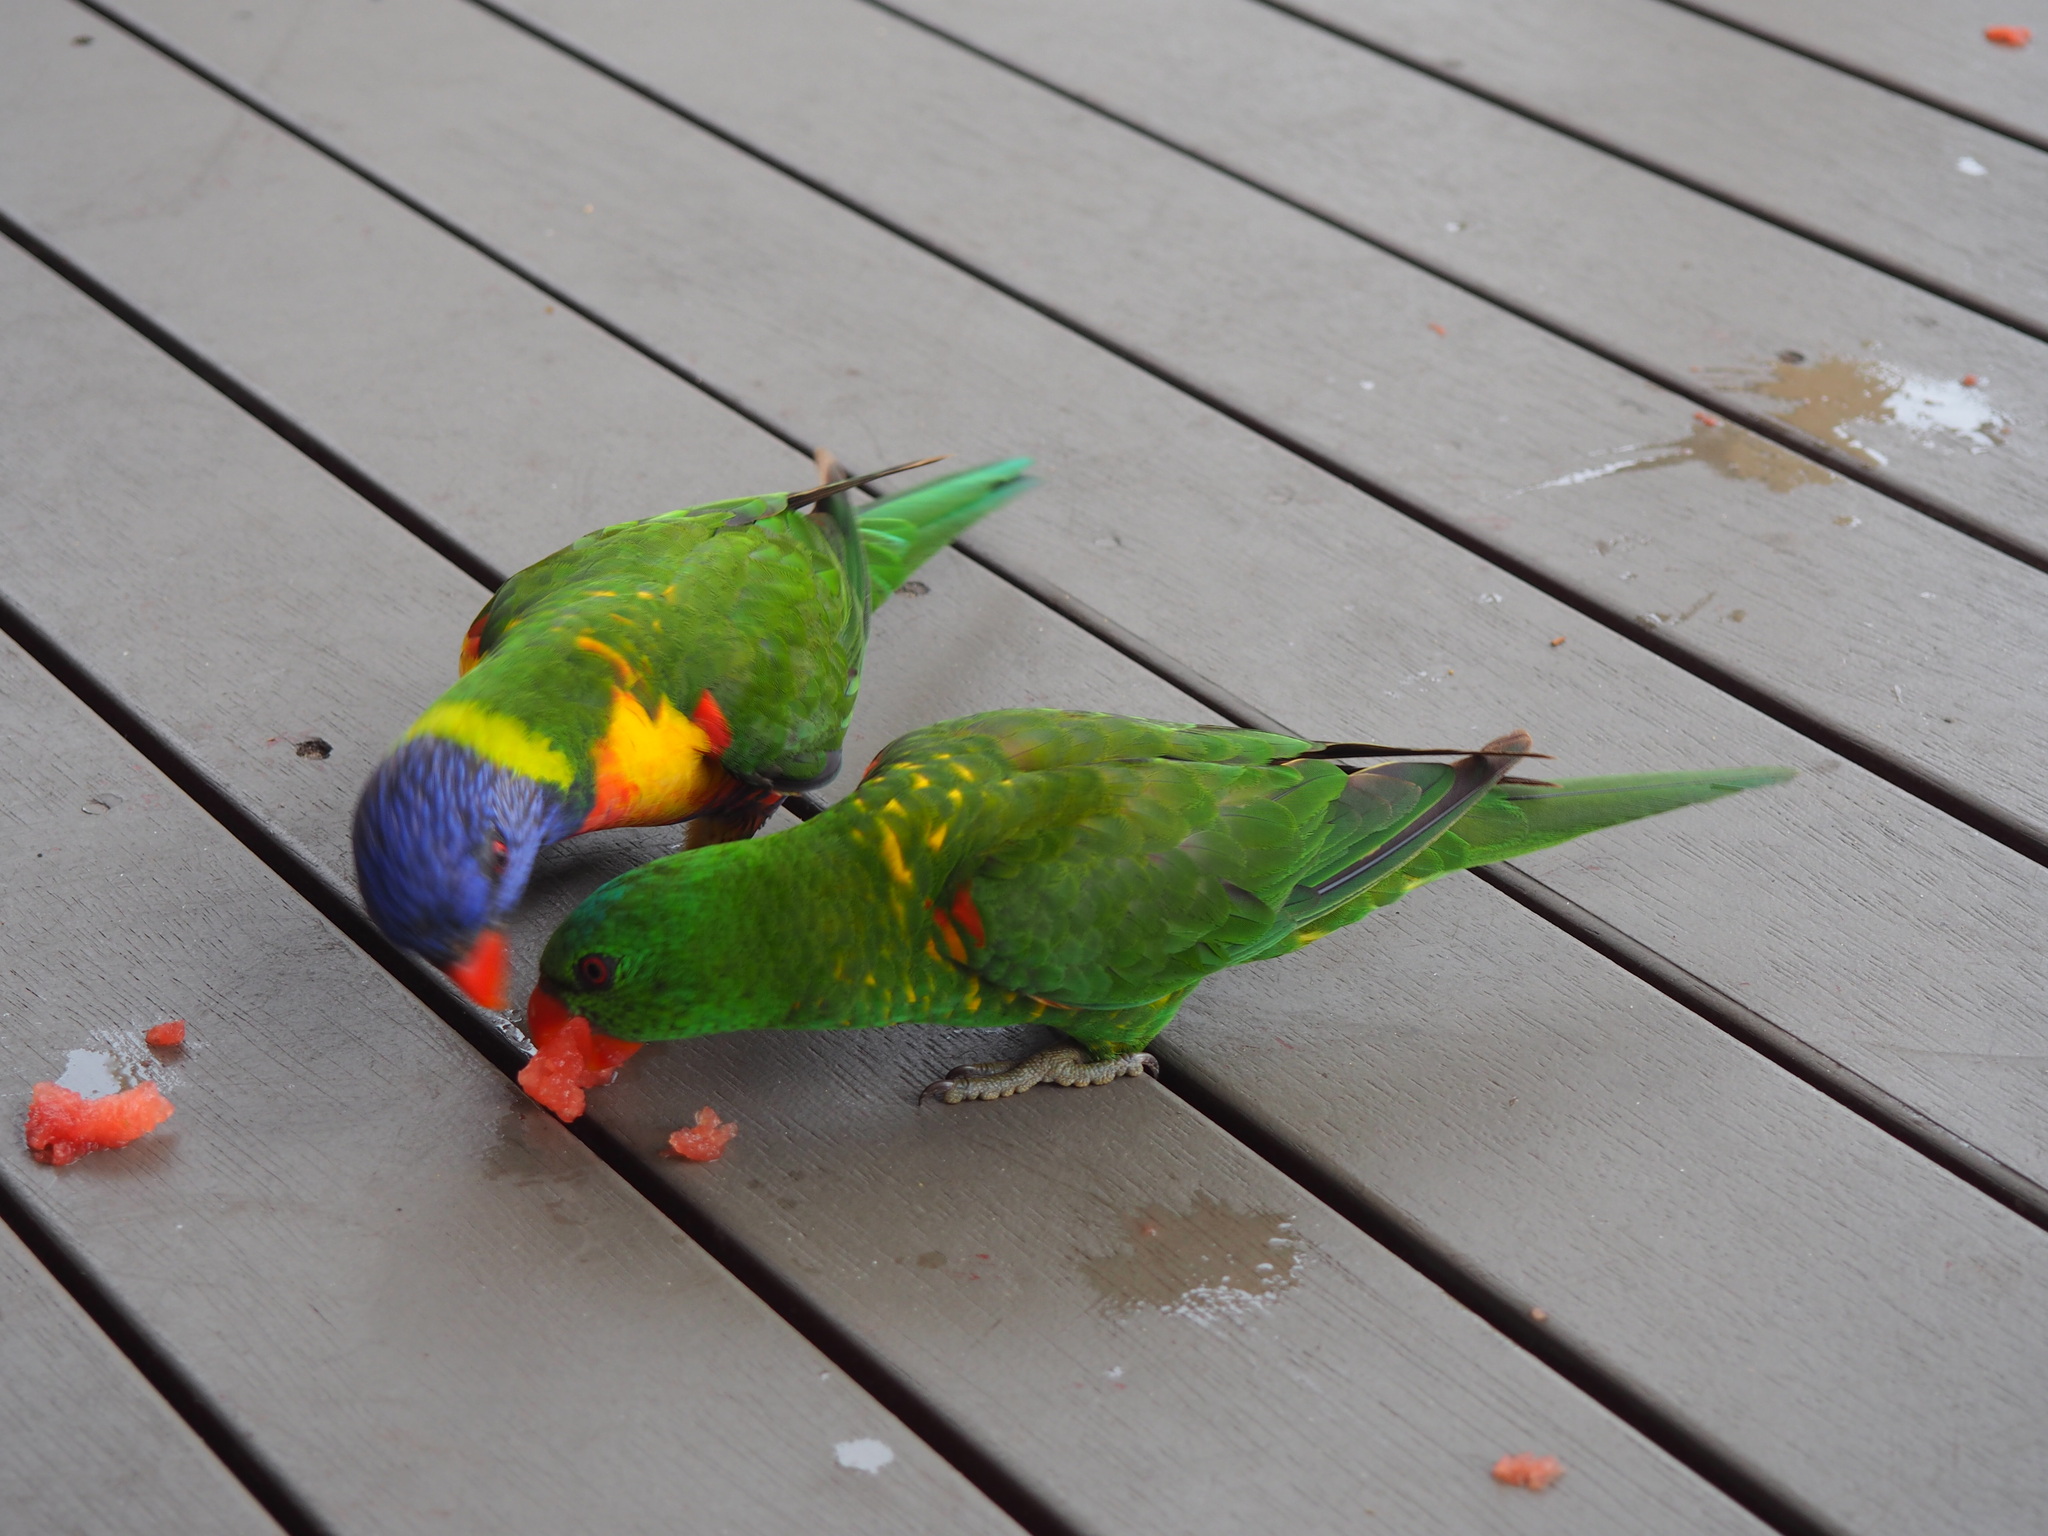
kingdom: Animalia
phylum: Chordata
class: Aves
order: Psittaciformes
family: Psittacidae
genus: Trichoglossus
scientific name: Trichoglossus haematodus
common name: Coconut lorikeet
